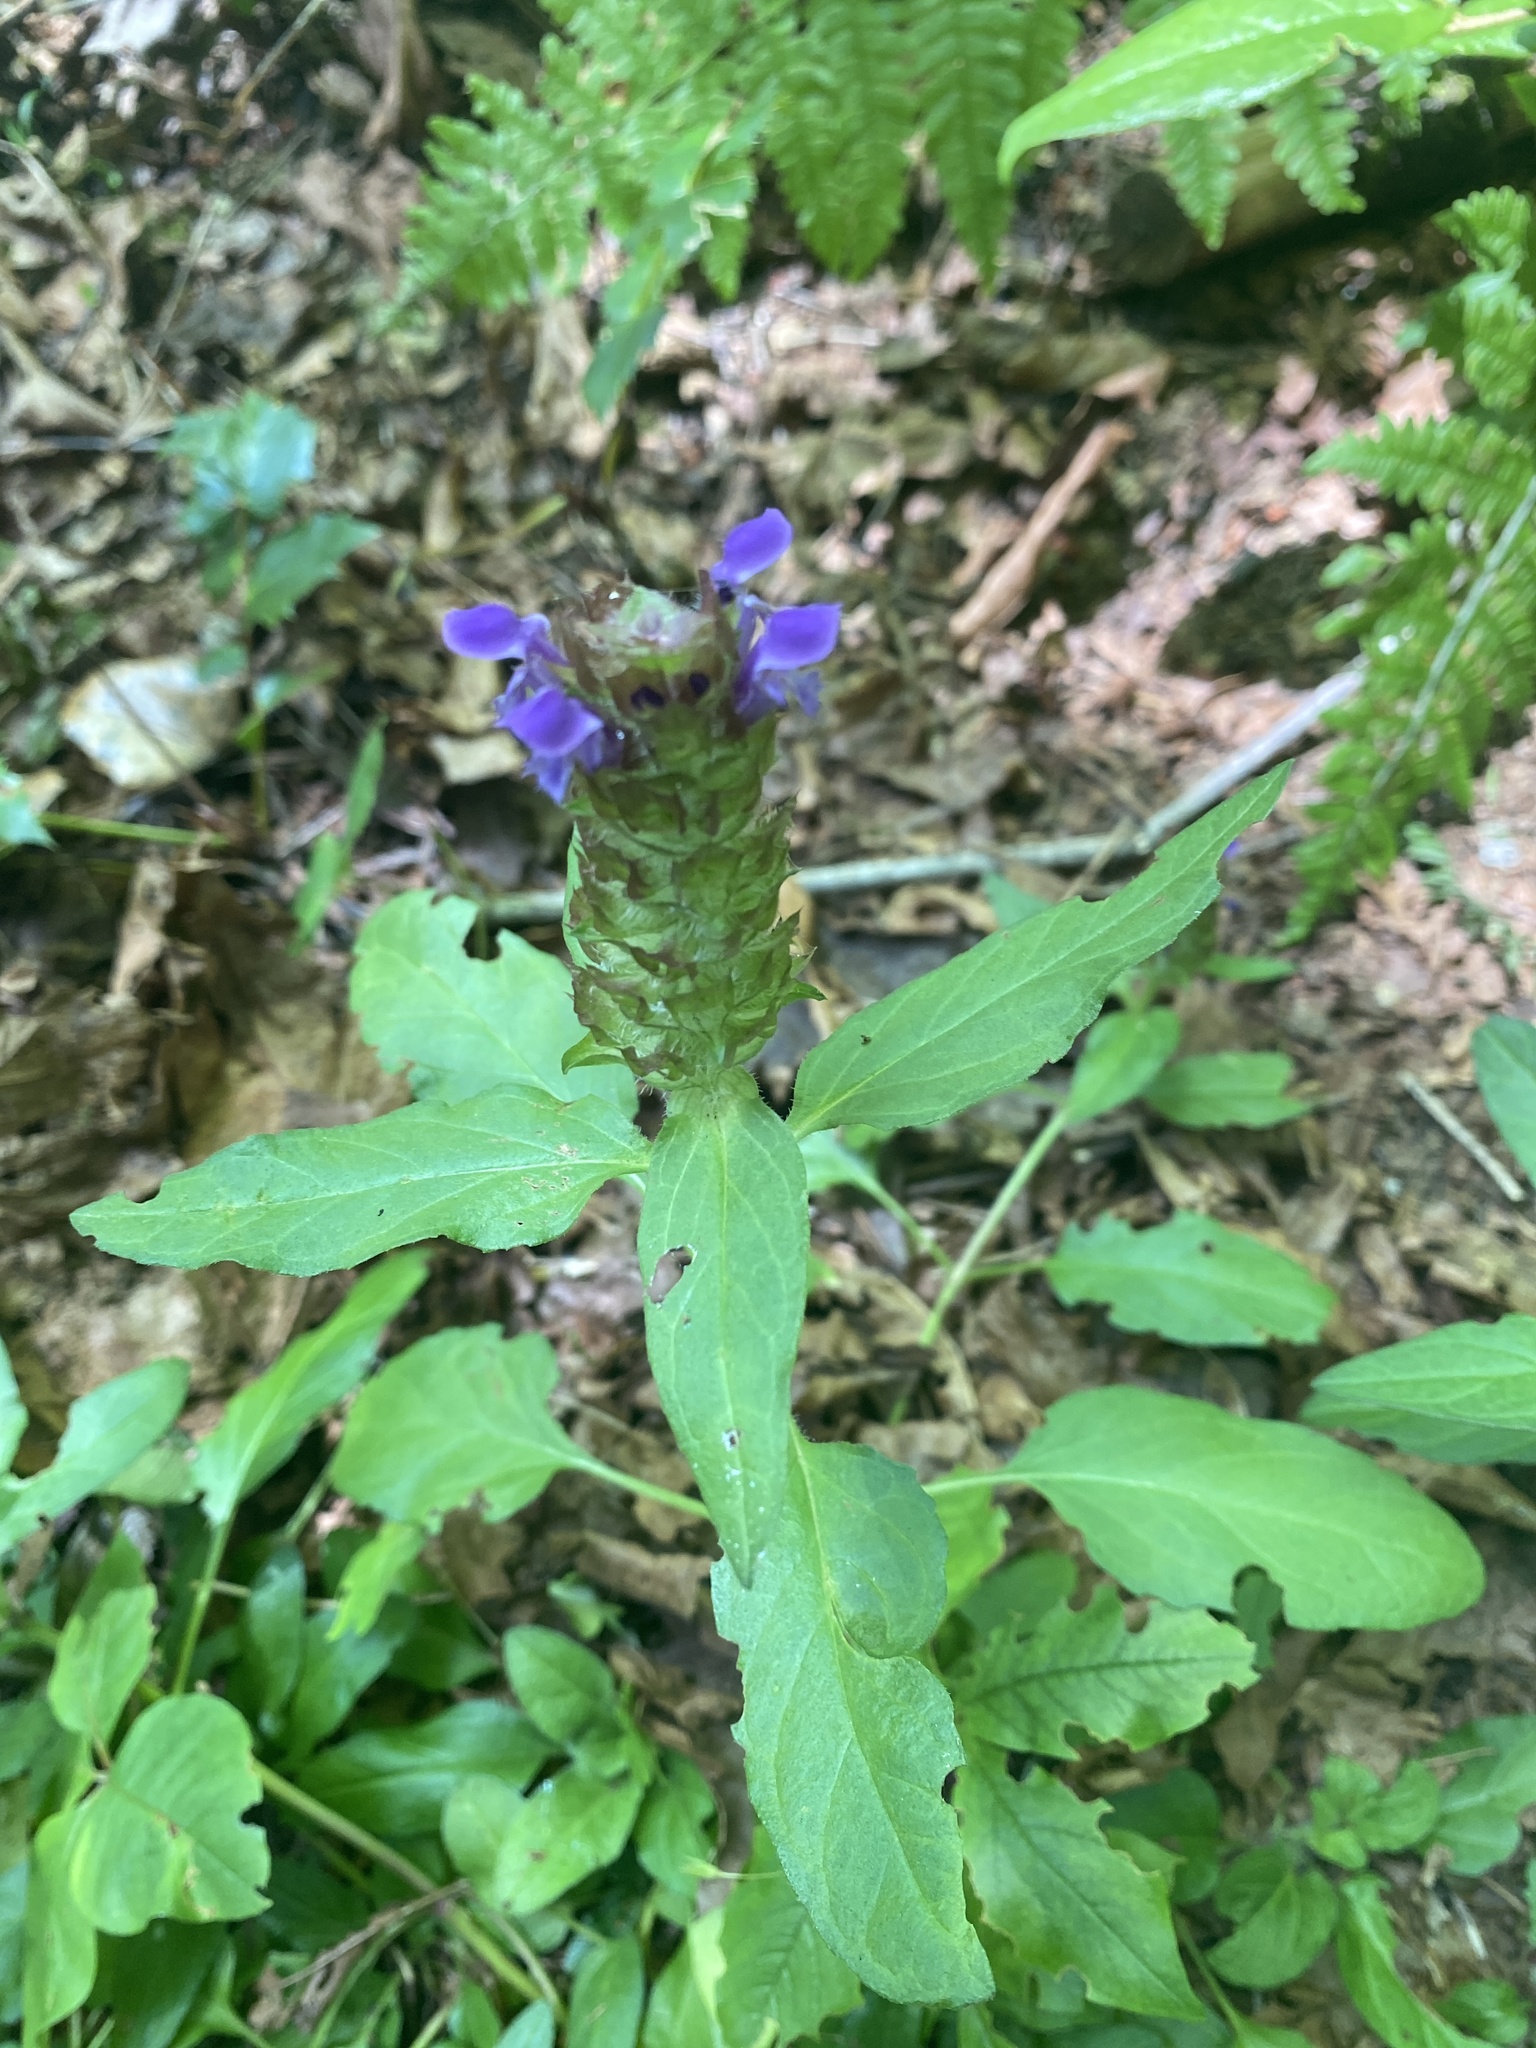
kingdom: Plantae
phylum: Tracheophyta
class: Magnoliopsida
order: Lamiales
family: Lamiaceae
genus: Prunella
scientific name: Prunella vulgaris
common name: Heal-all
